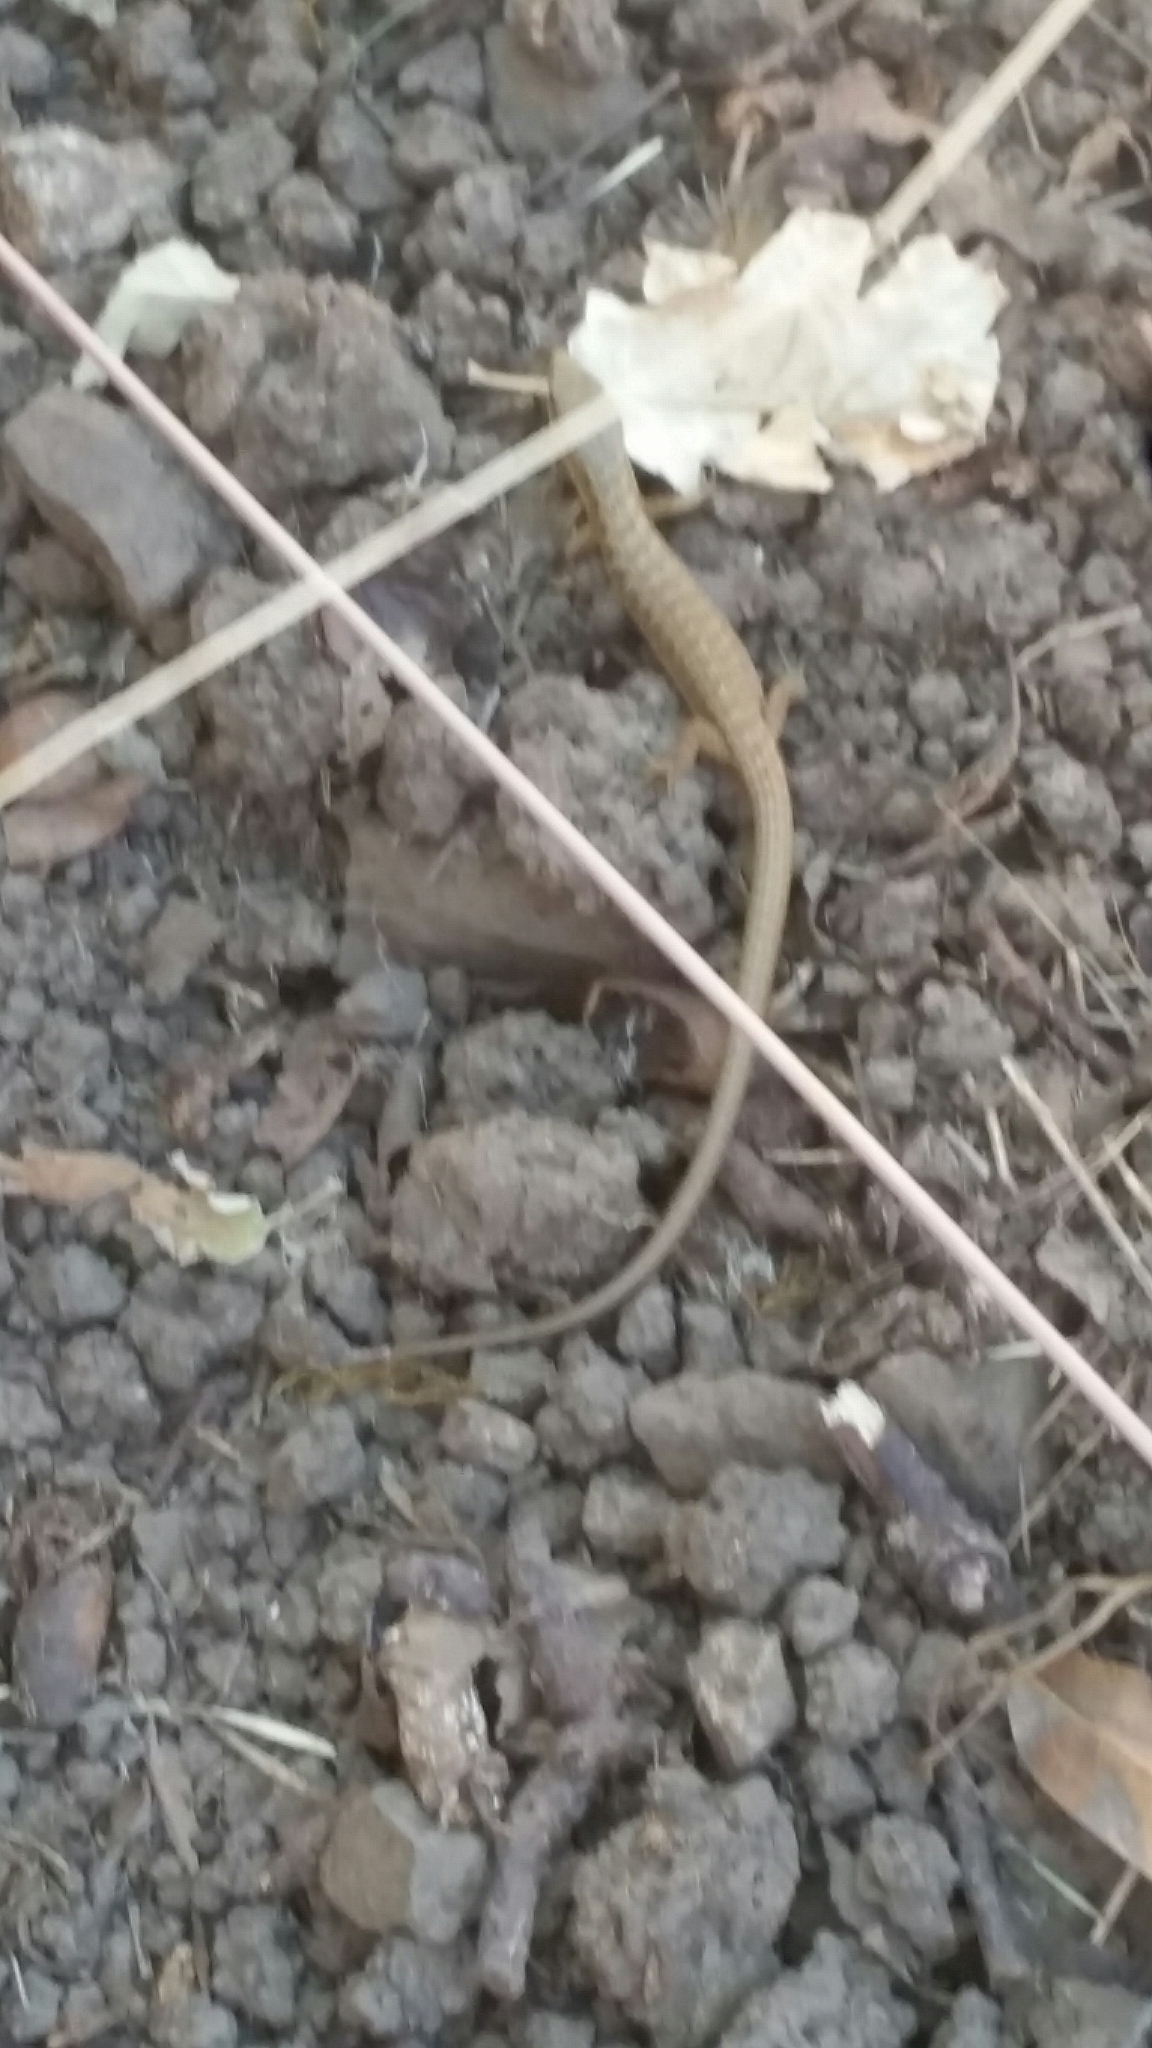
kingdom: Animalia
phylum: Chordata
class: Squamata
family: Anguidae
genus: Elgaria
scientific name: Elgaria multicarinata
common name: Southern alligator lizard
